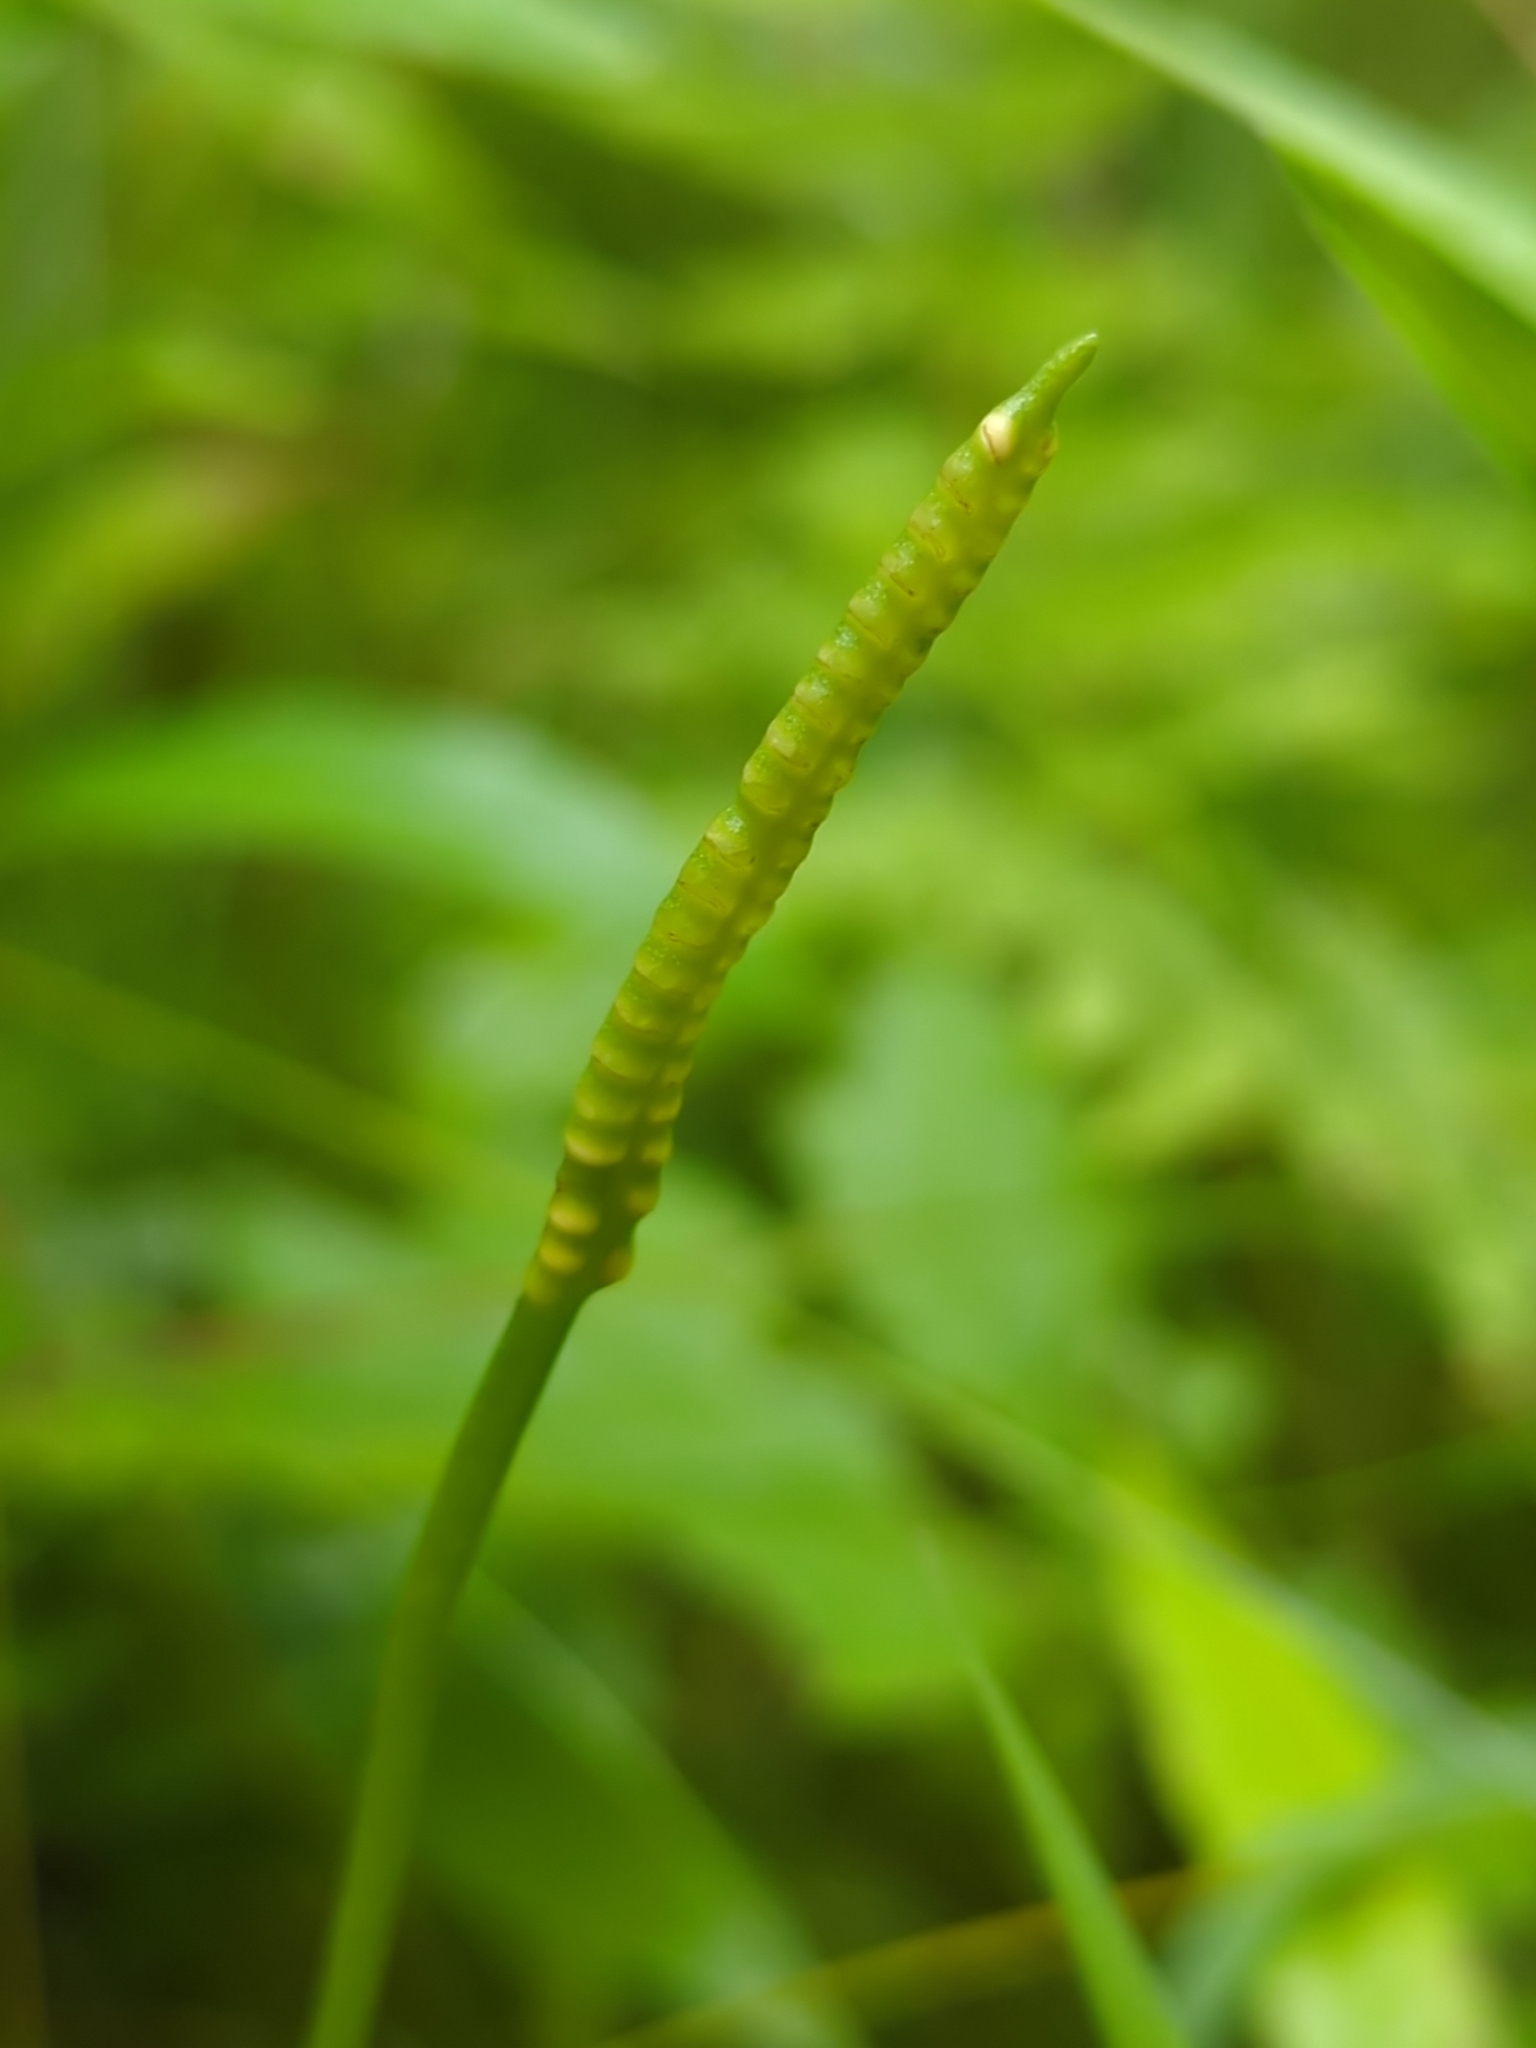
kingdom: Plantae
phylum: Tracheophyta
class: Polypodiopsida
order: Ophioglossales
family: Ophioglossaceae
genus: Ophioglossum
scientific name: Ophioglossum pusillum
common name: Northern adder's-tongue
